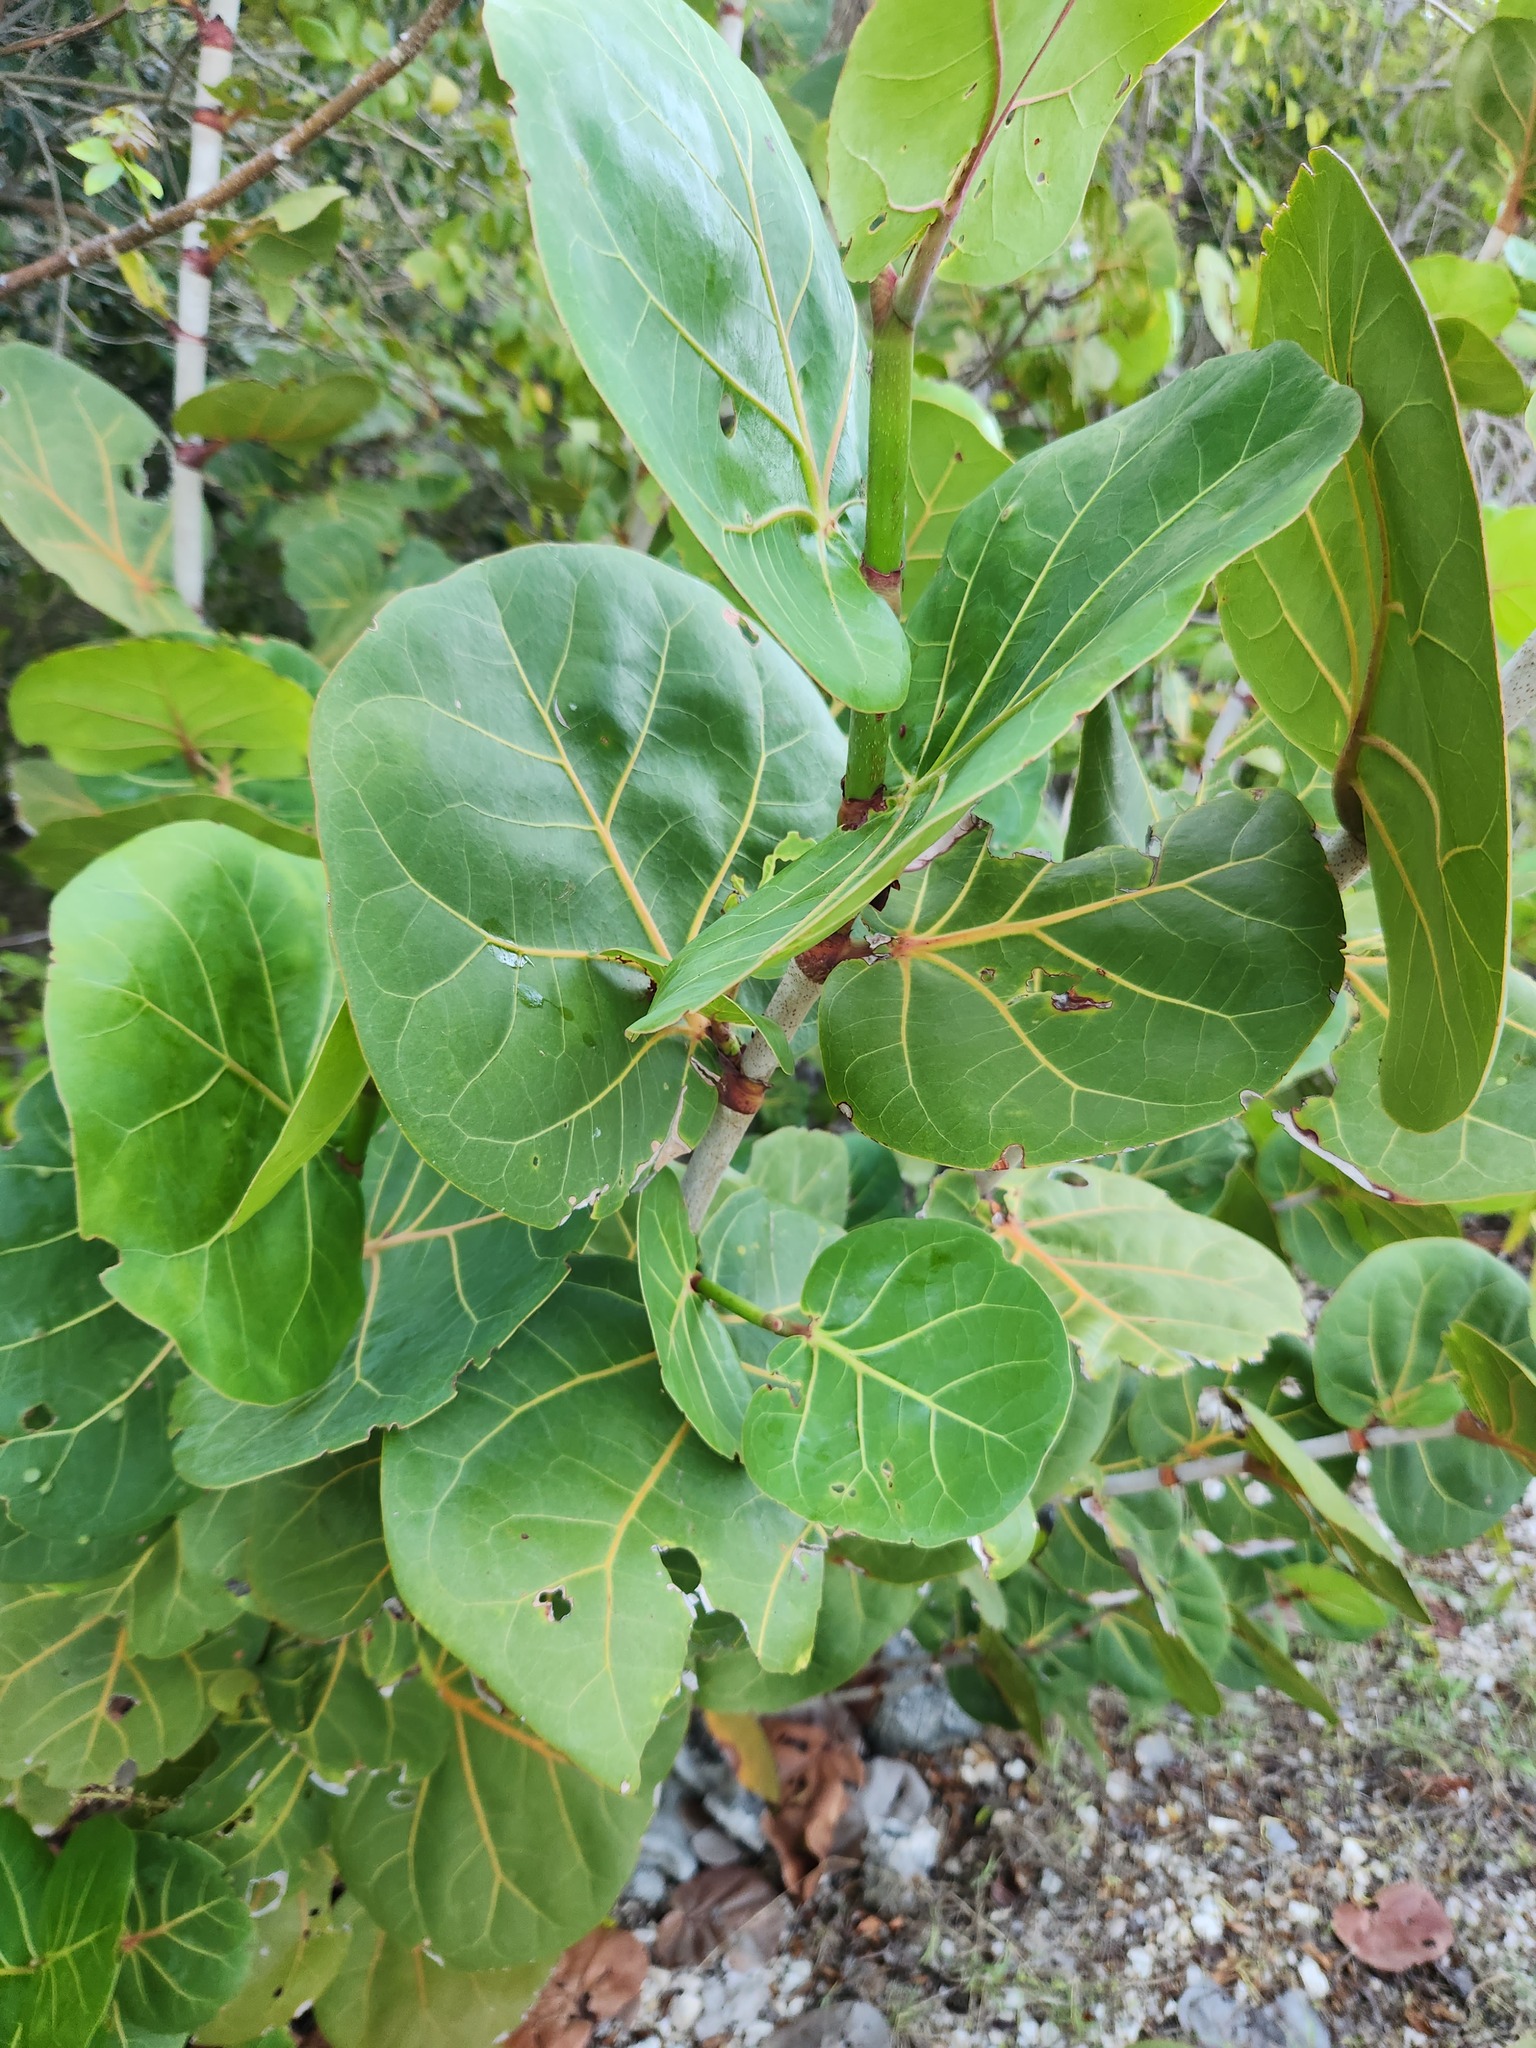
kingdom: Plantae
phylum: Tracheophyta
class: Magnoliopsida
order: Caryophyllales
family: Polygonaceae
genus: Coccoloba
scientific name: Coccoloba uvifera
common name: Seagrape
